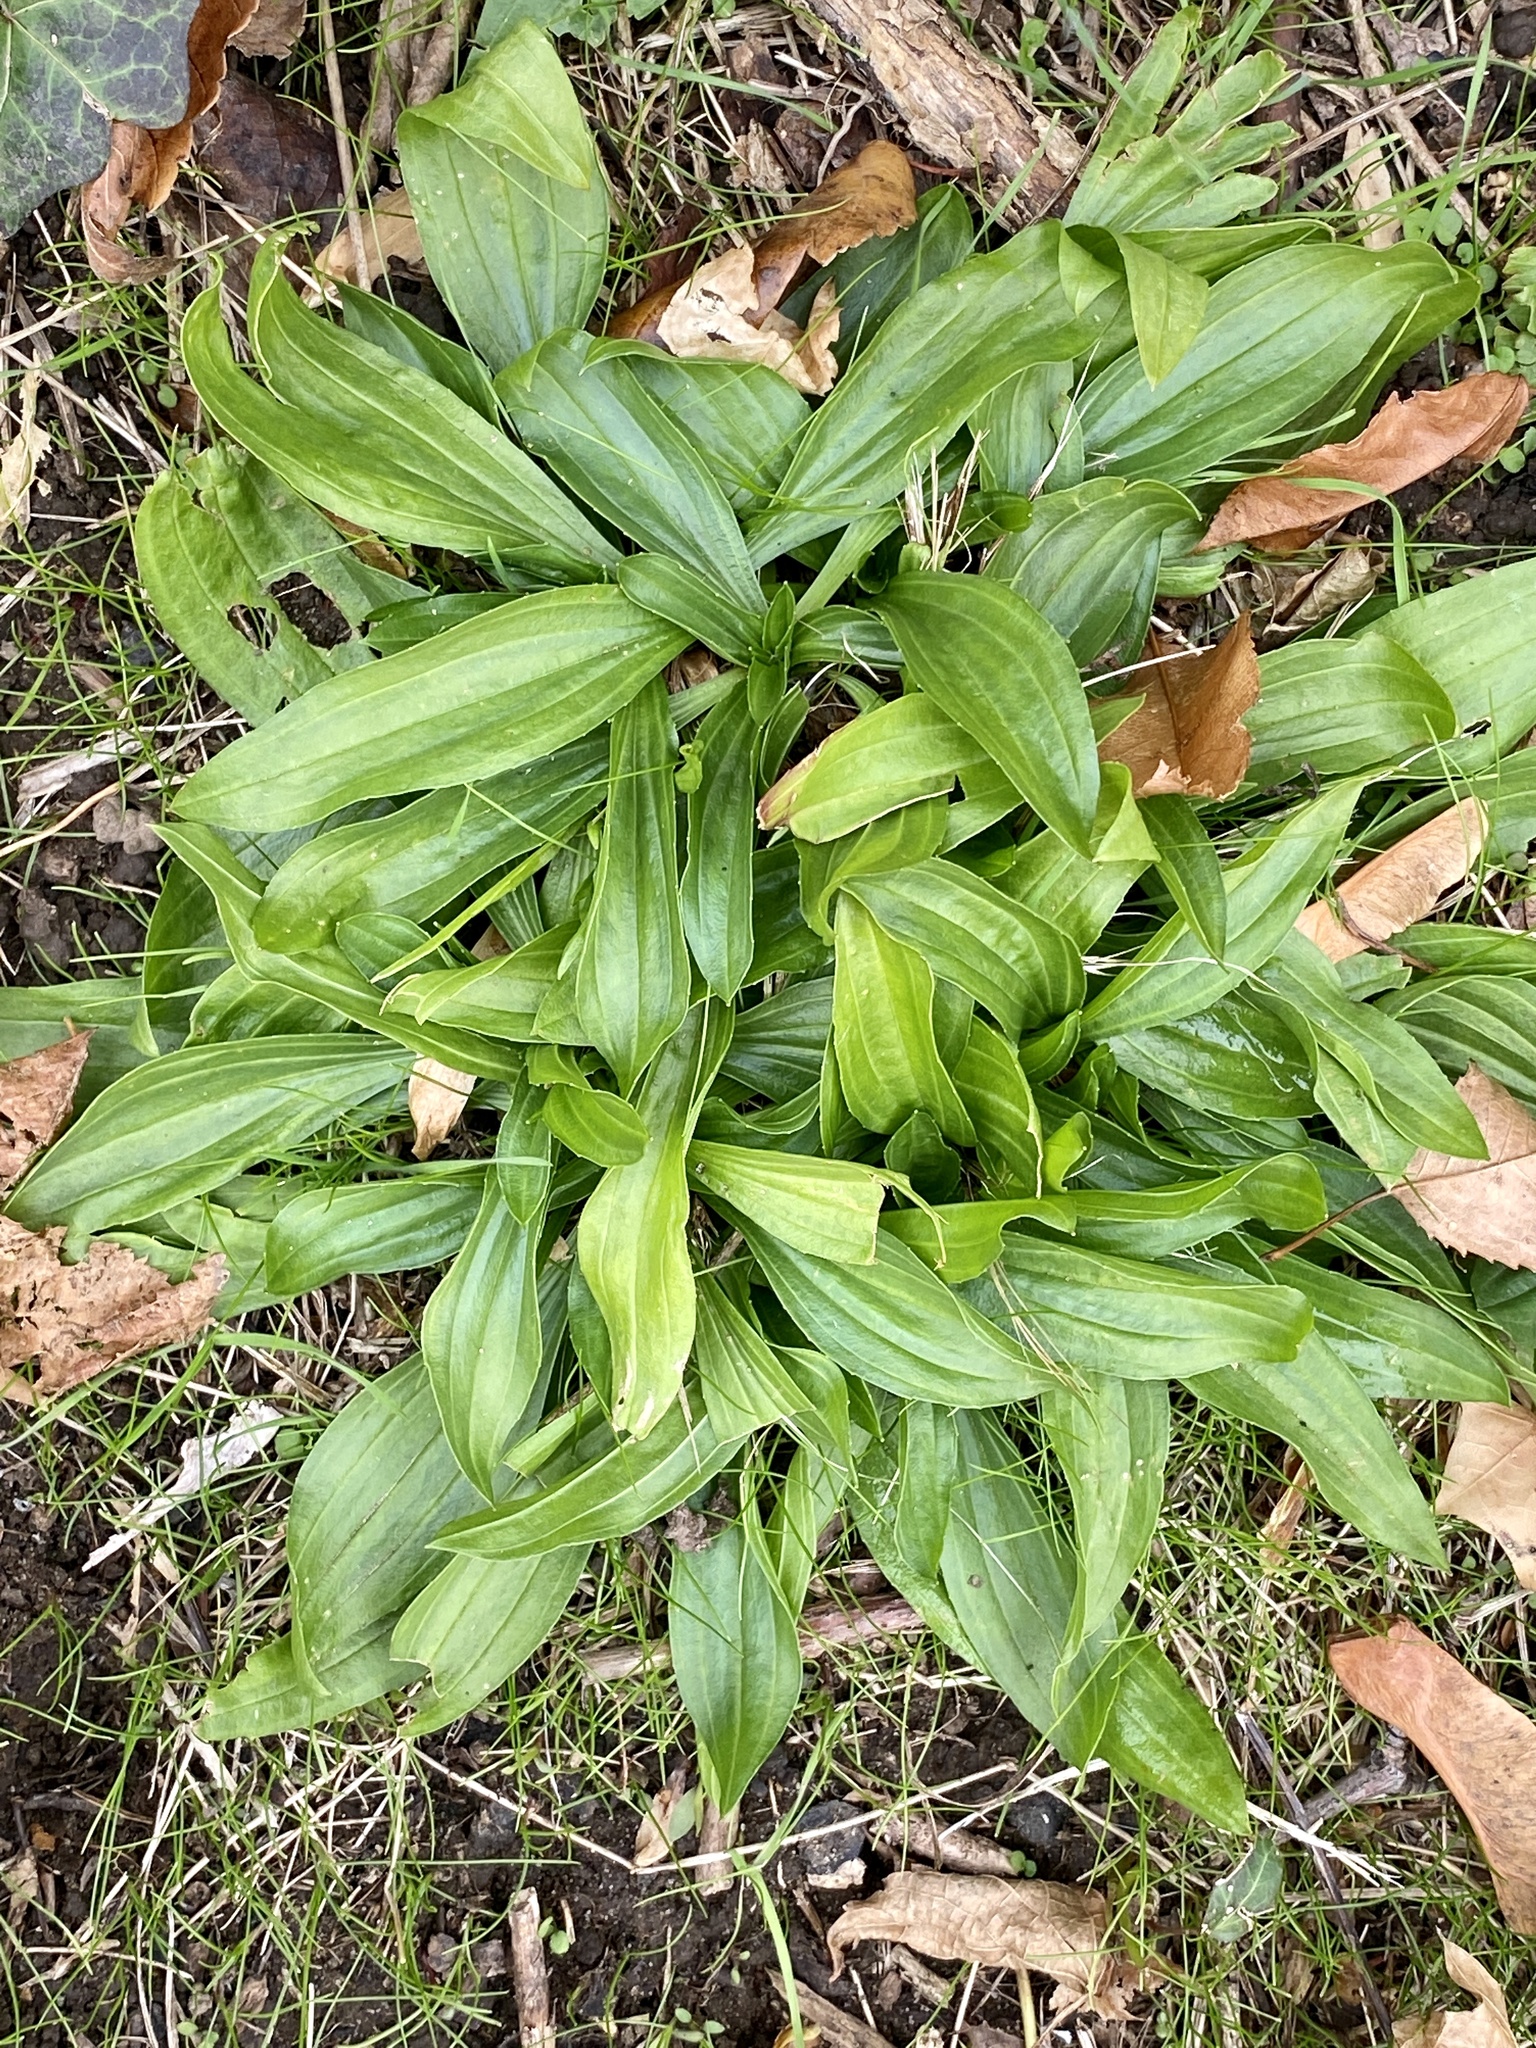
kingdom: Plantae
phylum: Tracheophyta
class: Magnoliopsida
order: Lamiales
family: Plantaginaceae
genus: Plantago
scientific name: Plantago lanceolata
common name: Ribwort plantain
